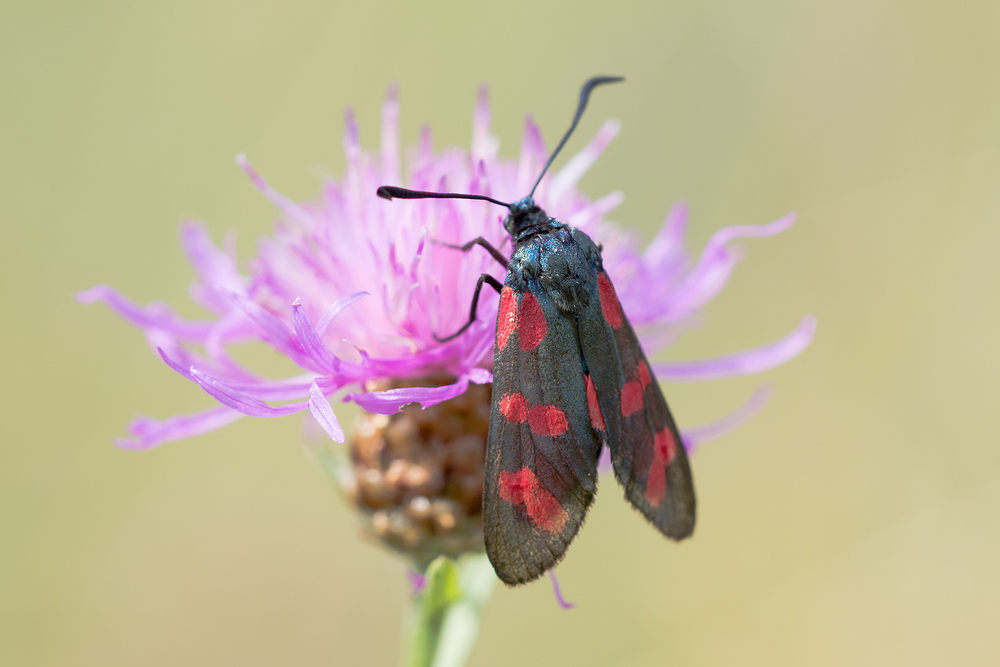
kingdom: Animalia
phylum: Arthropoda
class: Insecta
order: Lepidoptera
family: Zygaenidae
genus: Zygaena
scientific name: Zygaena filipendulae
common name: Six-spot burnet
